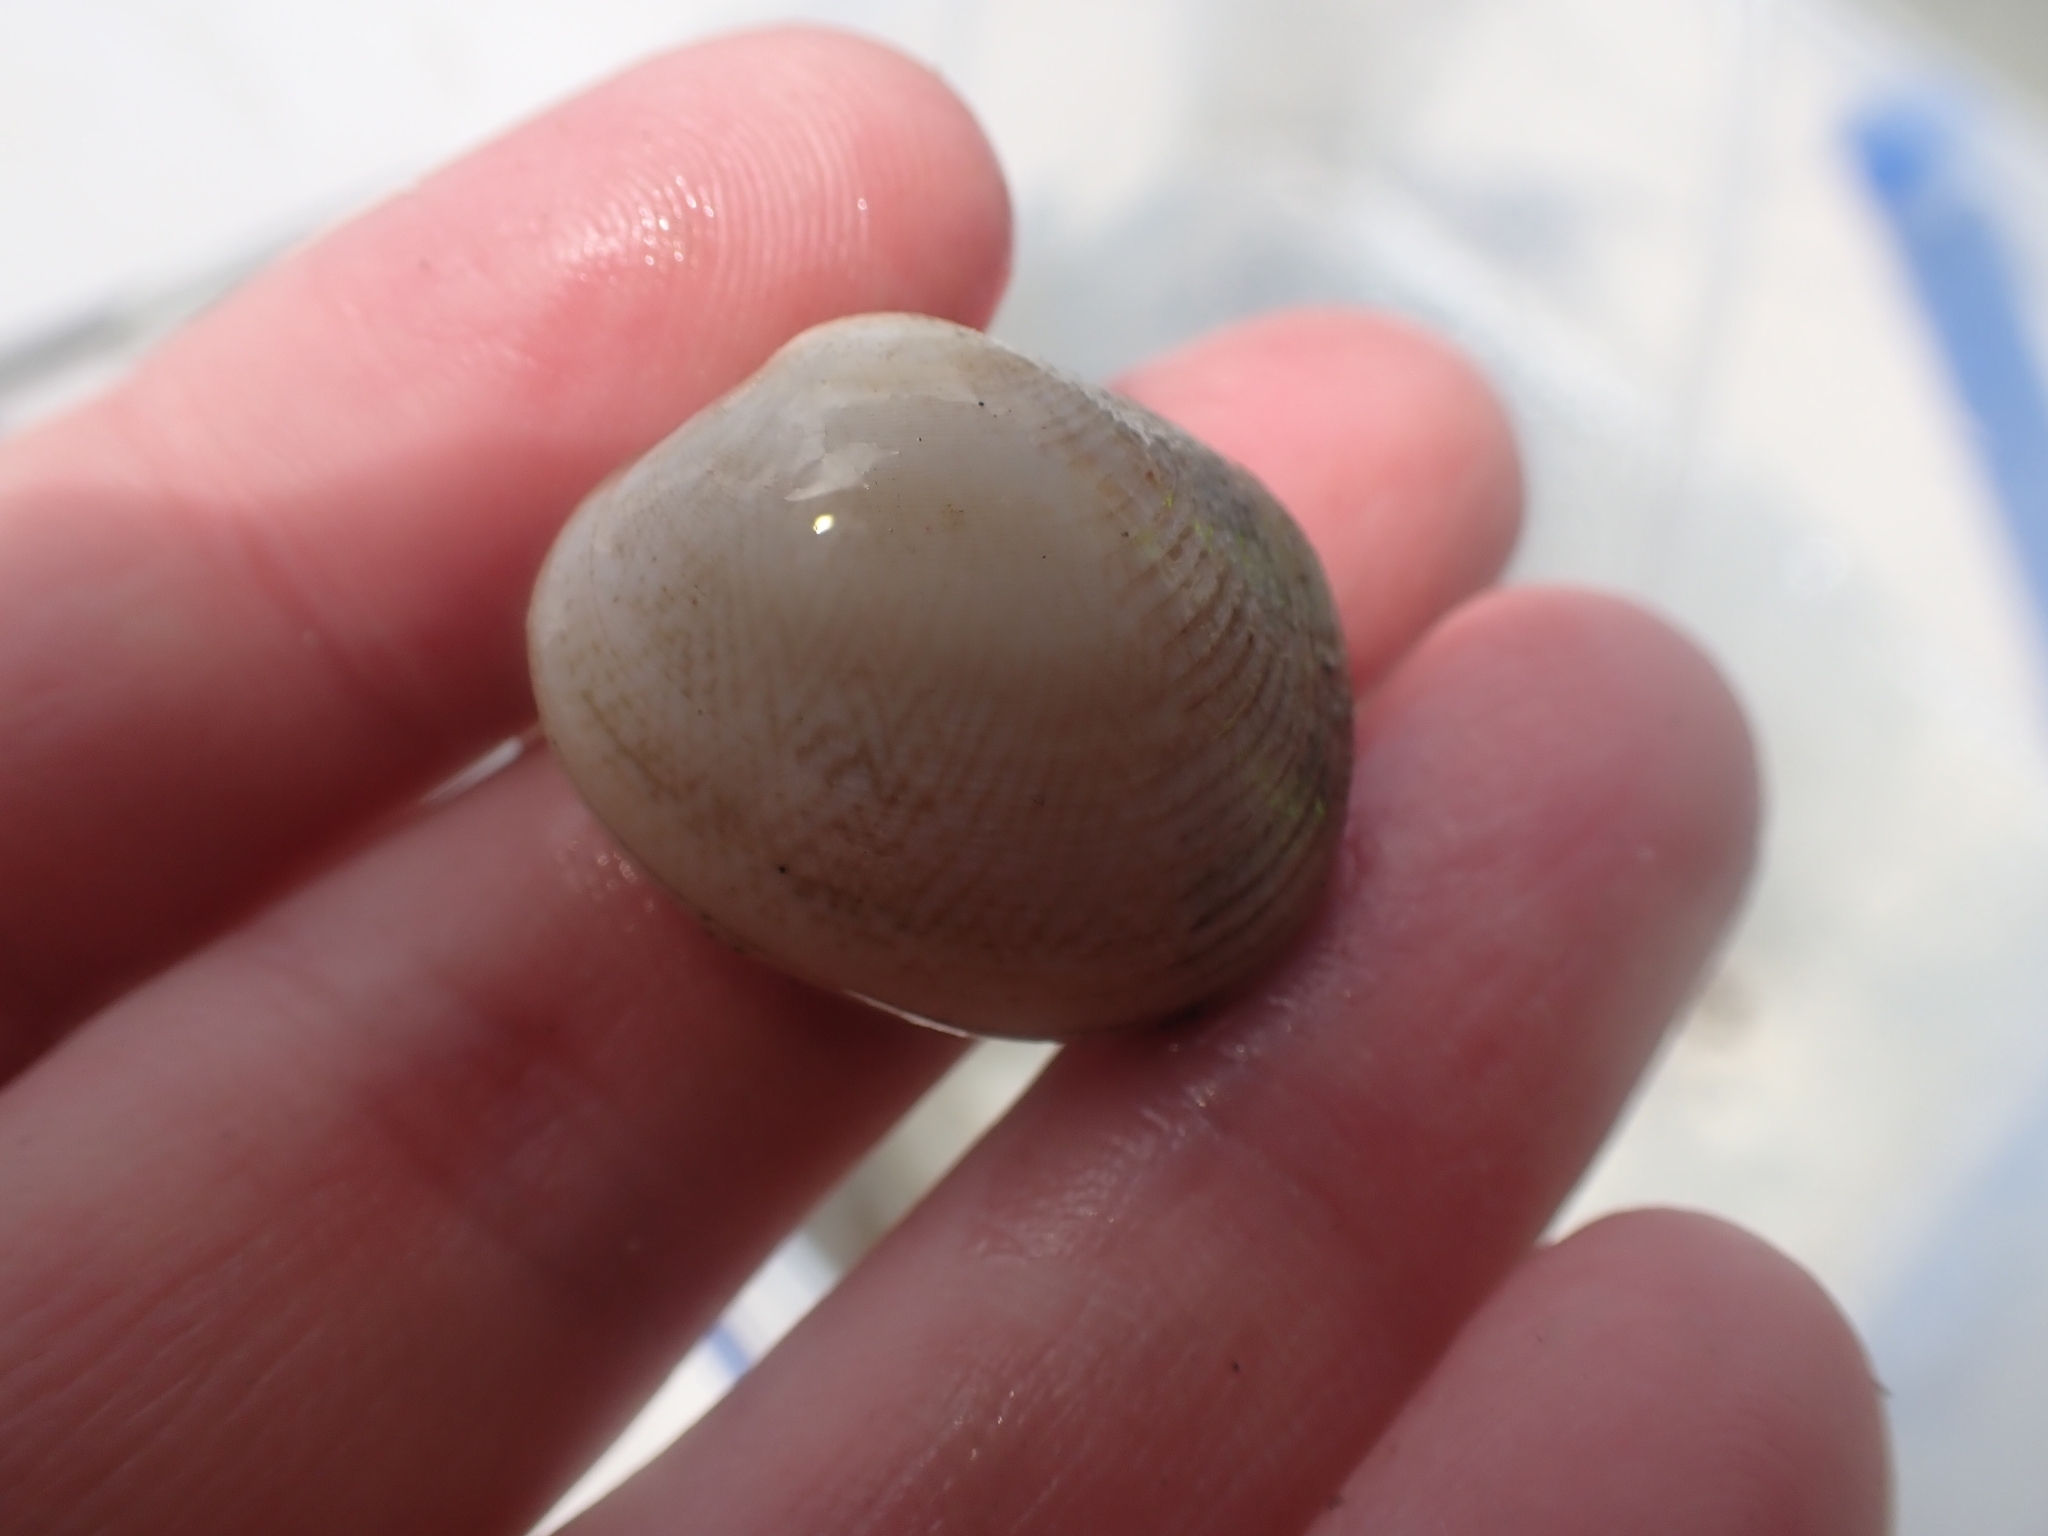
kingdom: Animalia
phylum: Mollusca
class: Bivalvia
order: Venerida
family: Veneridae
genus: Venerupis
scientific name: Venerupis largillierti
